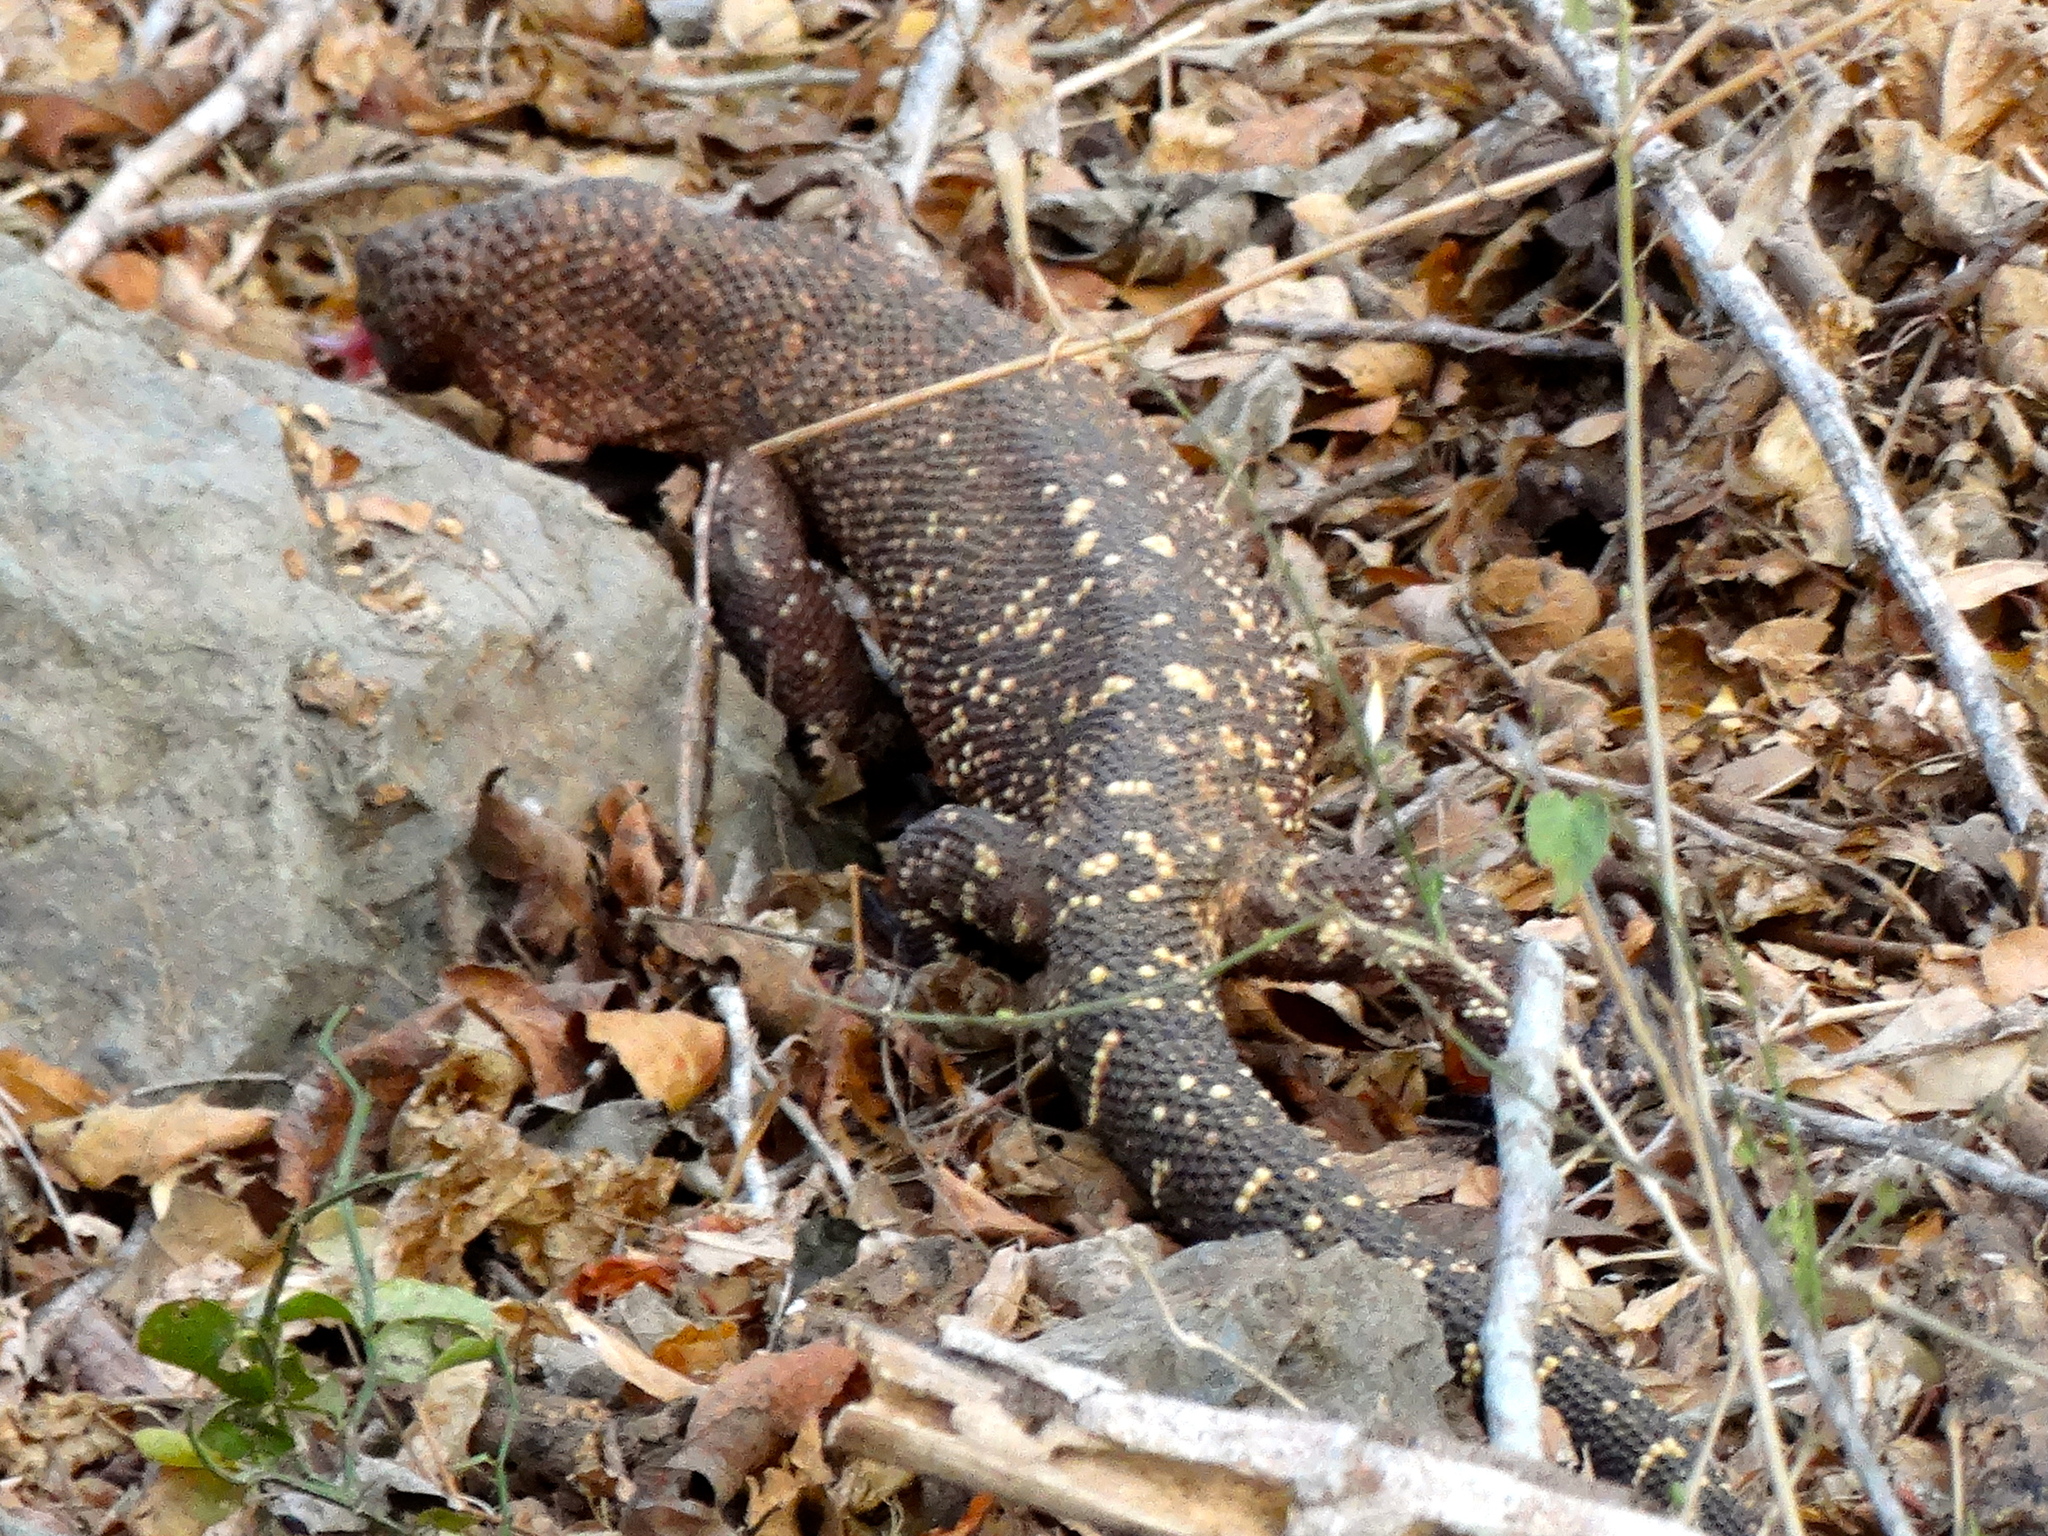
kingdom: Animalia
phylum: Chordata
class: Squamata
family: Helodermatidae
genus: Heloderma
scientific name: Heloderma horridum
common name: Mexican beaded lizard
